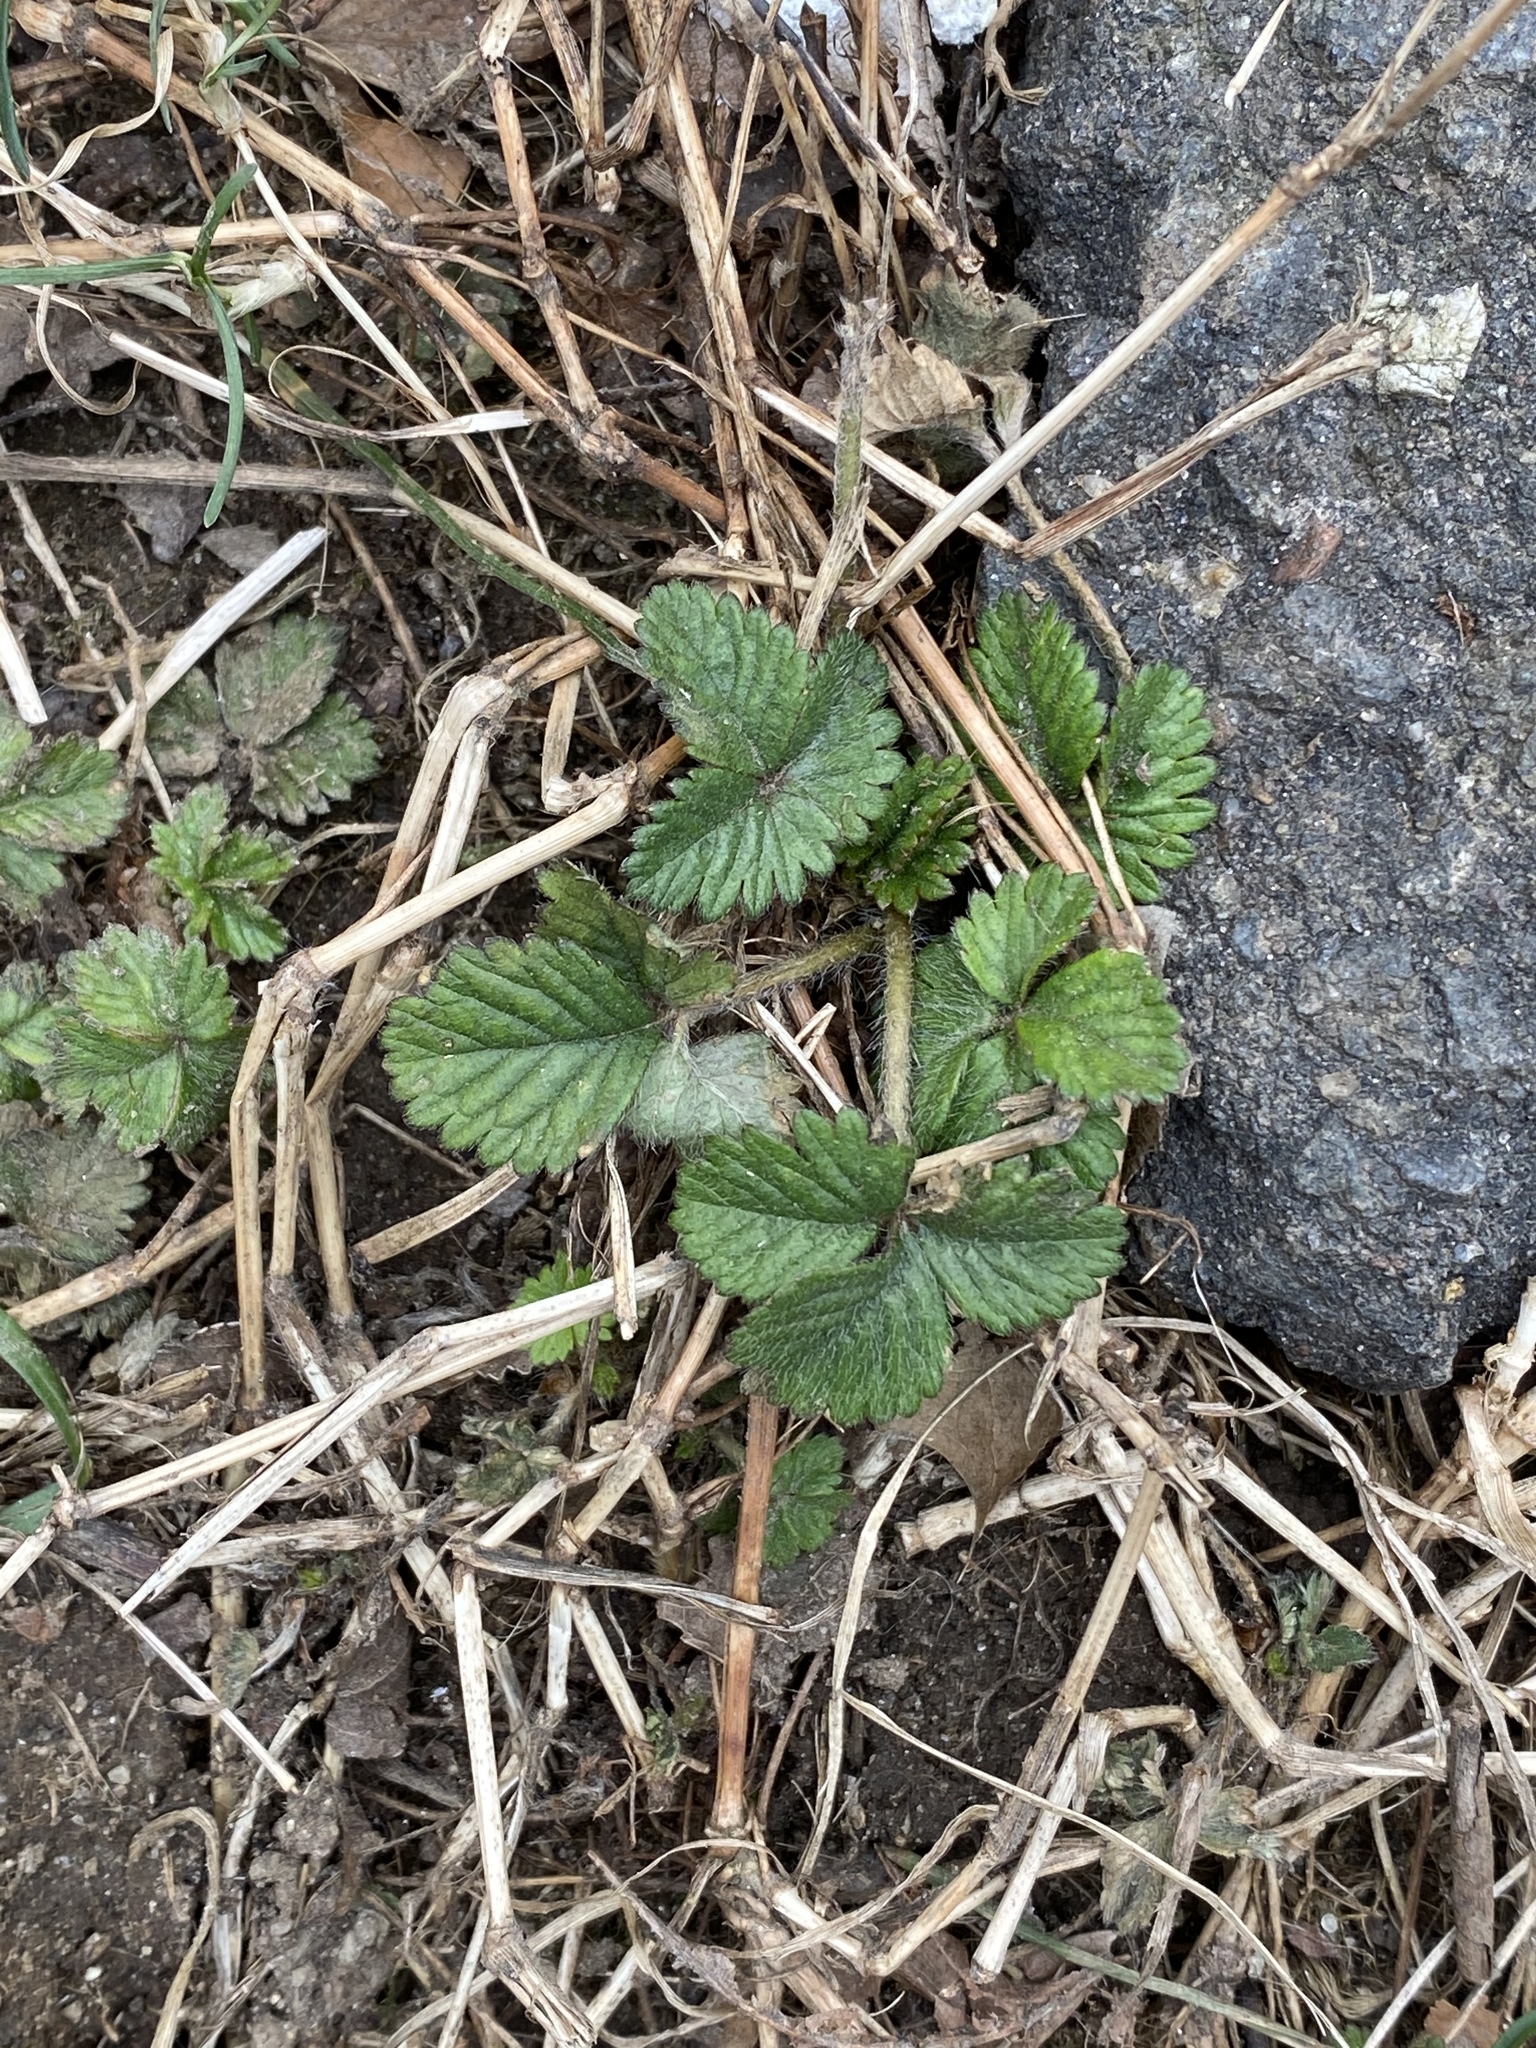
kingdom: Plantae
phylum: Tracheophyta
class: Magnoliopsida
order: Rosales
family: Rosaceae
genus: Potentilla
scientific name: Potentilla indica
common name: Yellow-flowered strawberry
